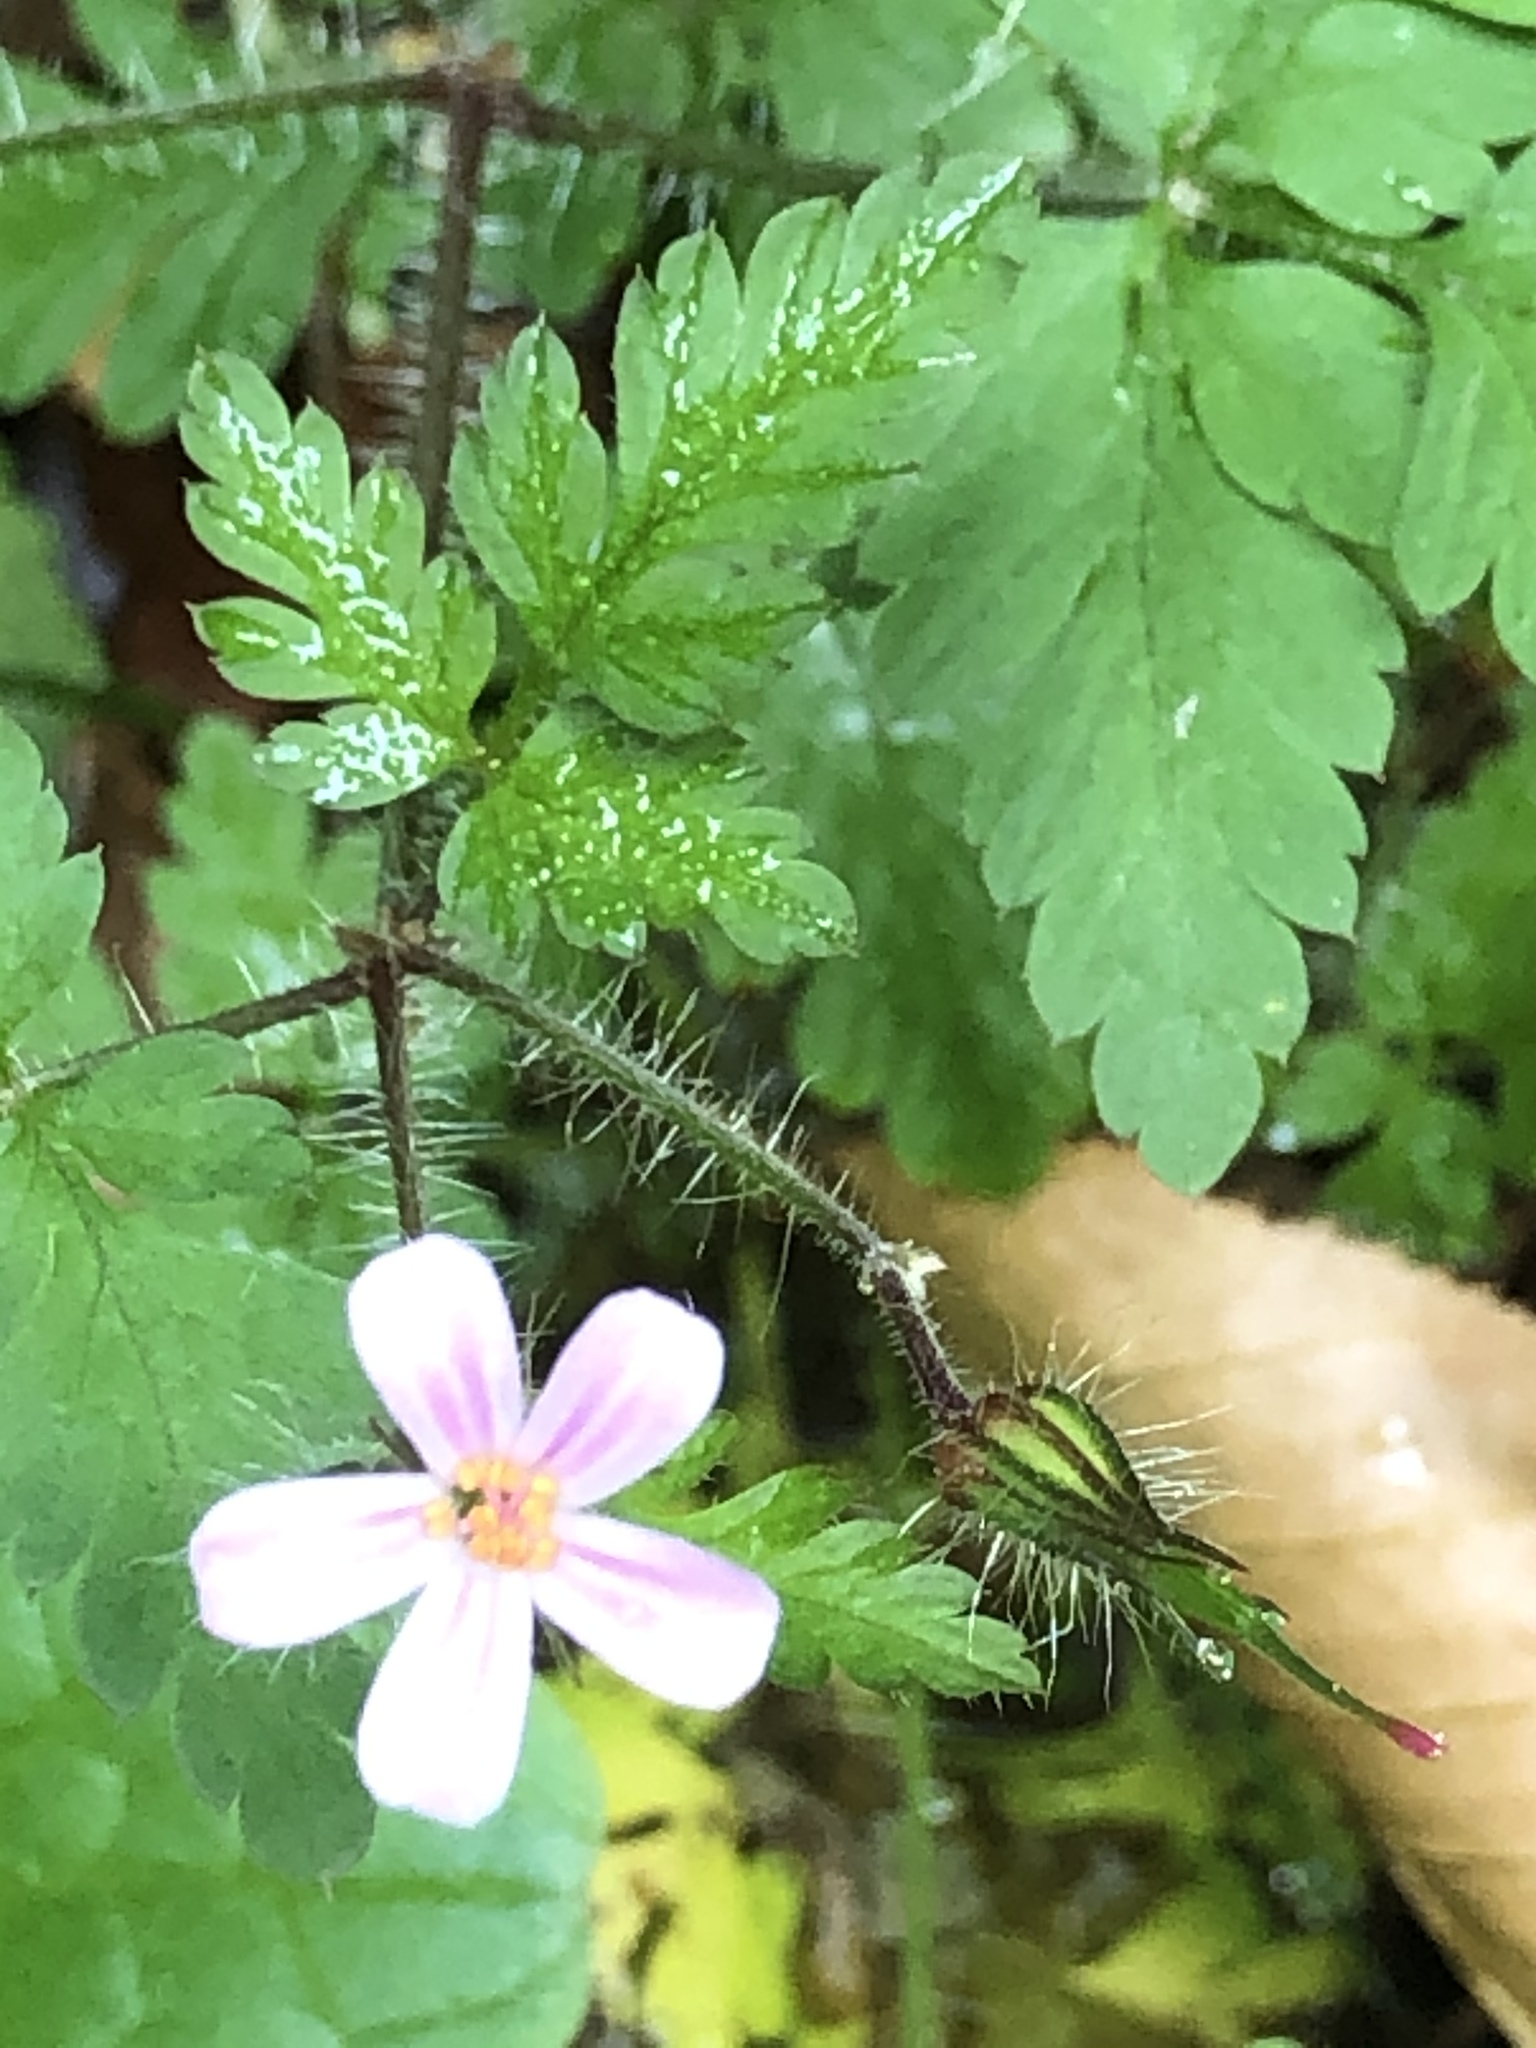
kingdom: Plantae
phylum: Tracheophyta
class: Magnoliopsida
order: Geraniales
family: Geraniaceae
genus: Geranium
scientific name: Geranium robertianum
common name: Herb-robert
